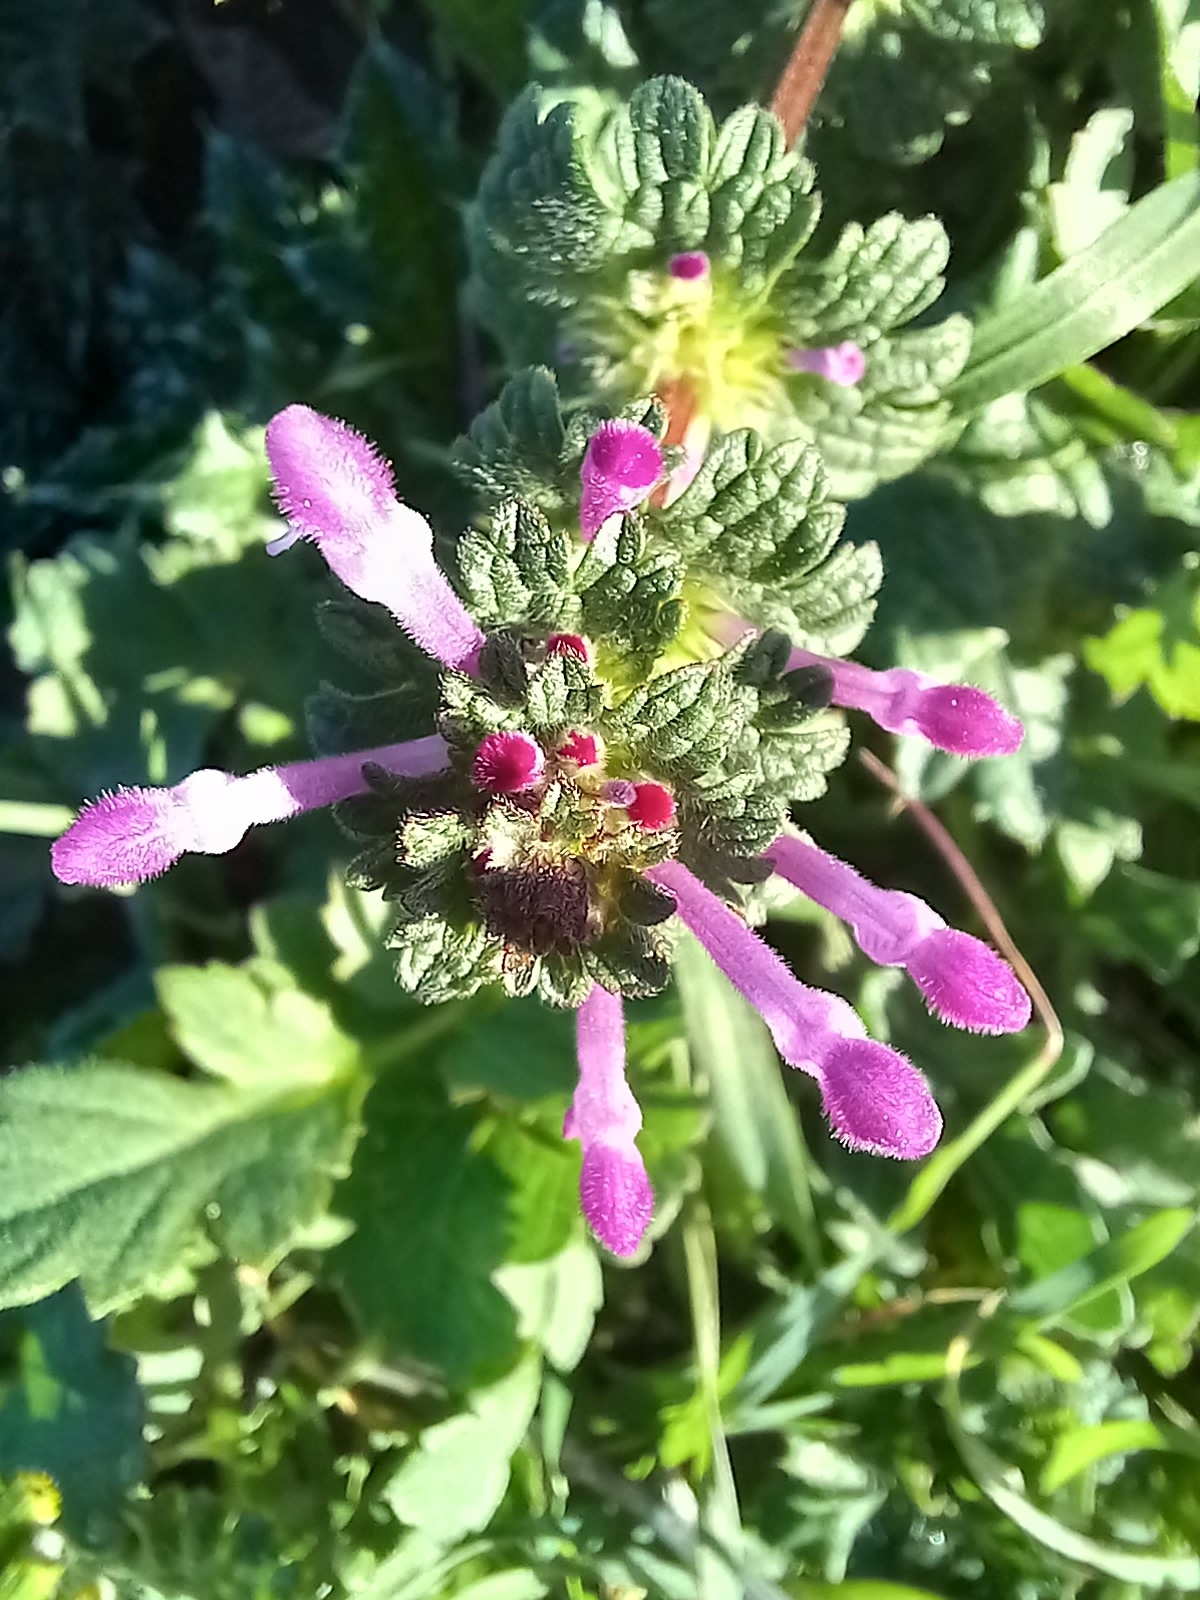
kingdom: Plantae
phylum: Tracheophyta
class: Magnoliopsida
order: Lamiales
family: Lamiaceae
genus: Lamium
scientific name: Lamium amplexicaule
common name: Henbit dead-nettle
